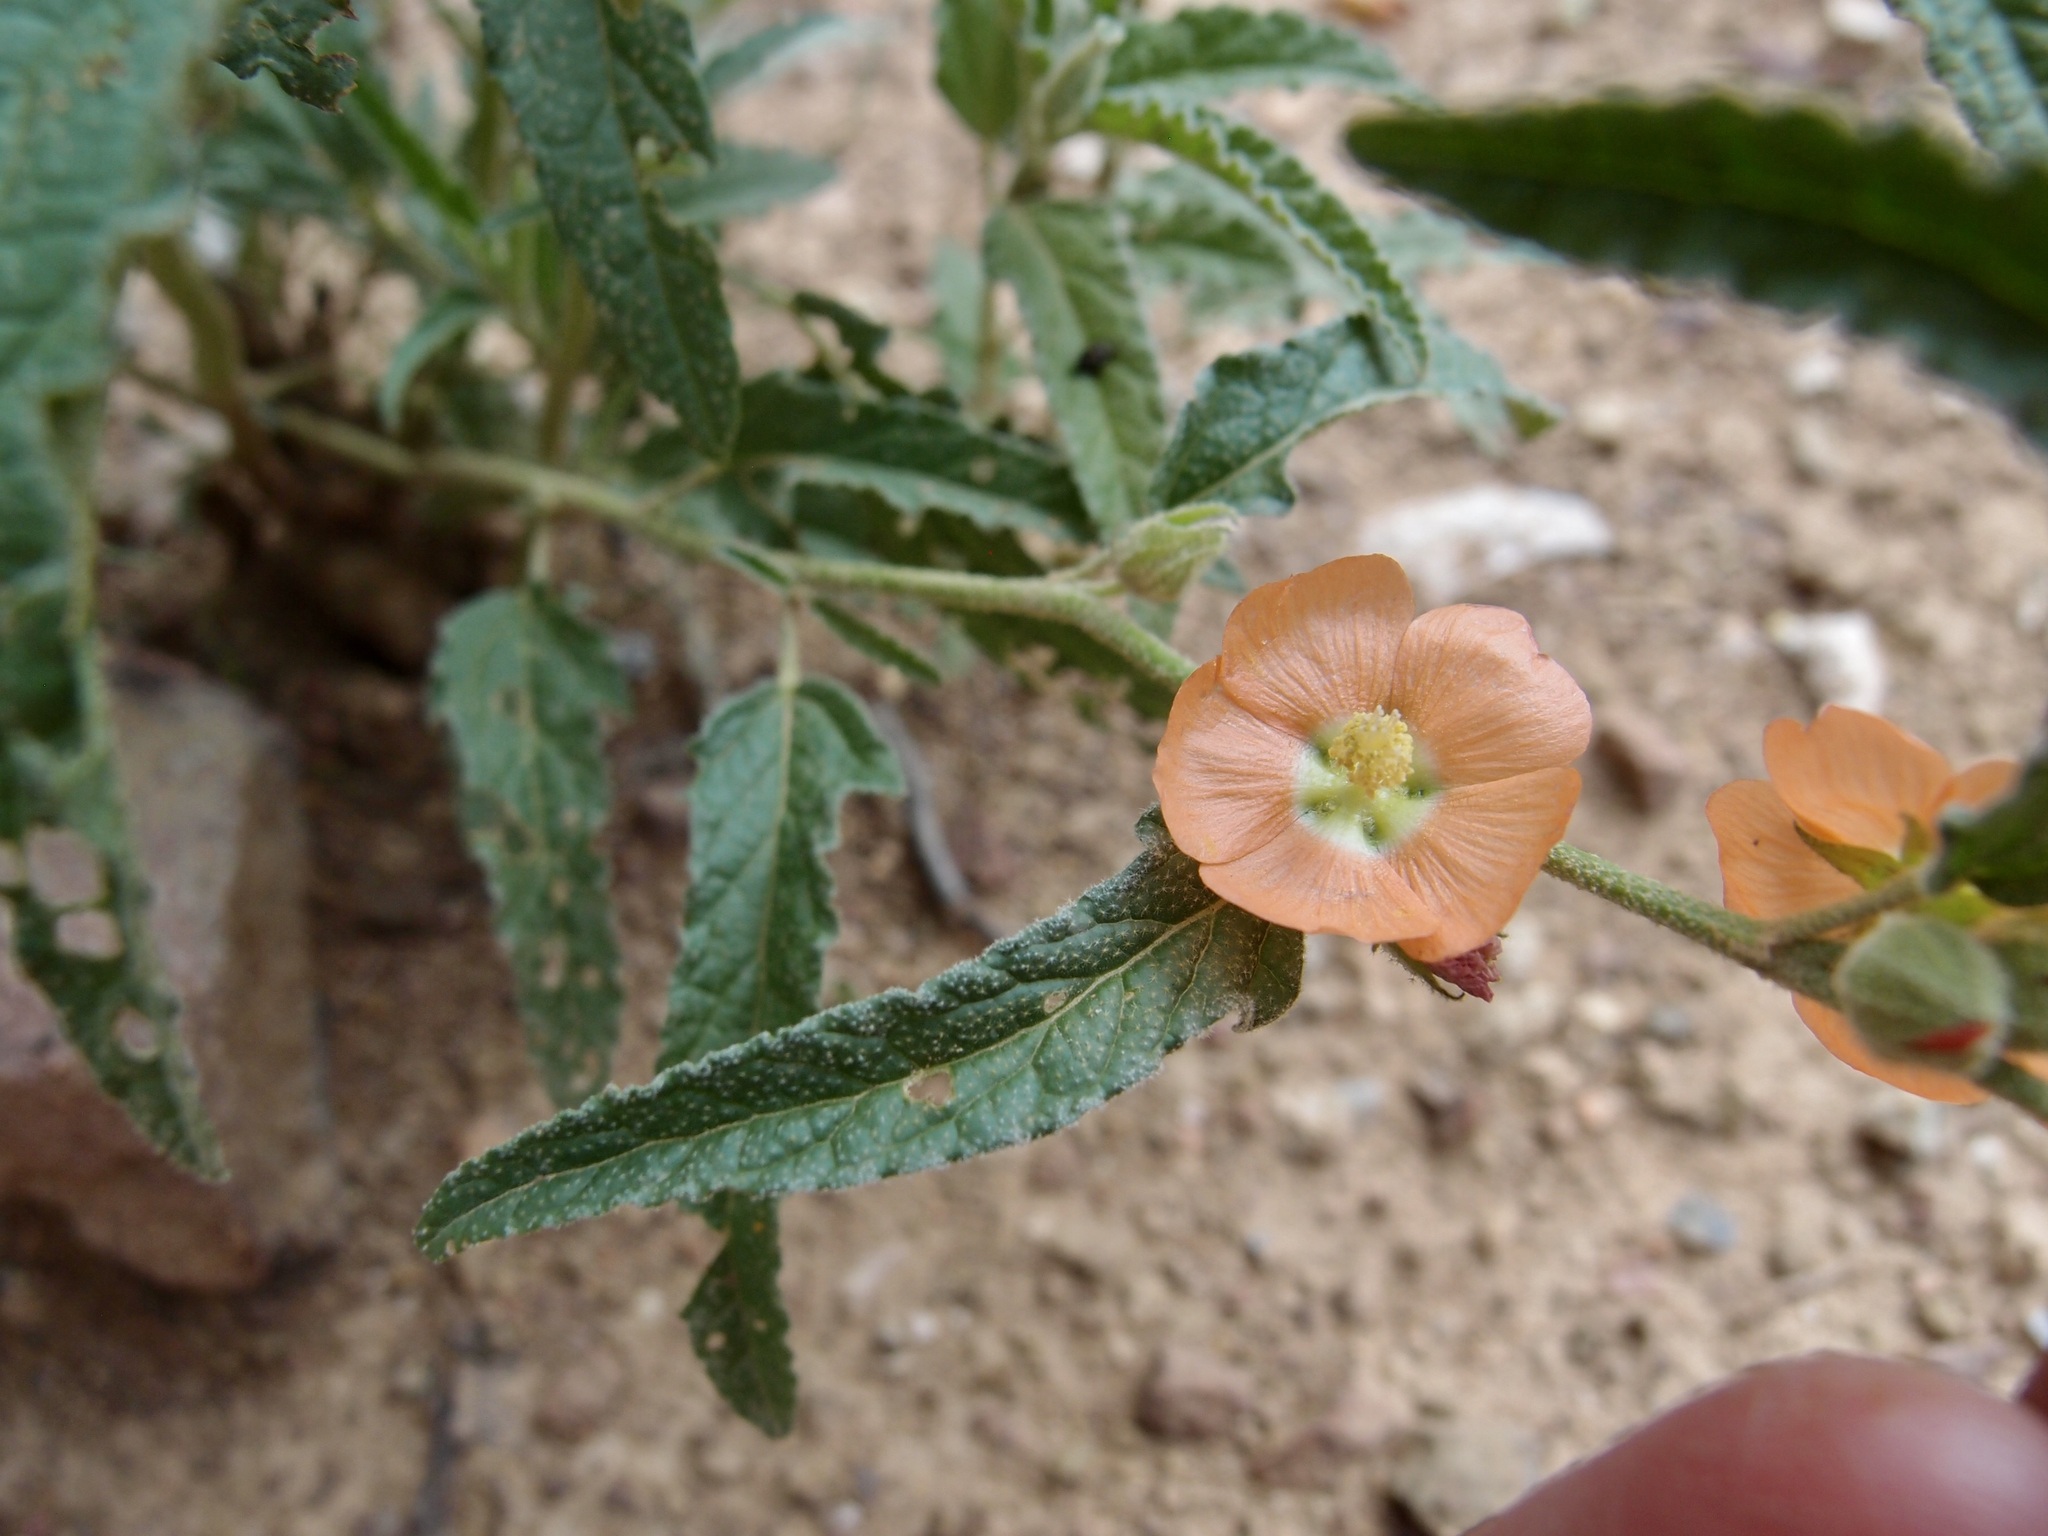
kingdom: Plantae
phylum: Tracheophyta
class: Magnoliopsida
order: Malvales
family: Malvaceae
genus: Sphaeralcea
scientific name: Sphaeralcea angustifolia
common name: Copper globe-mallow
